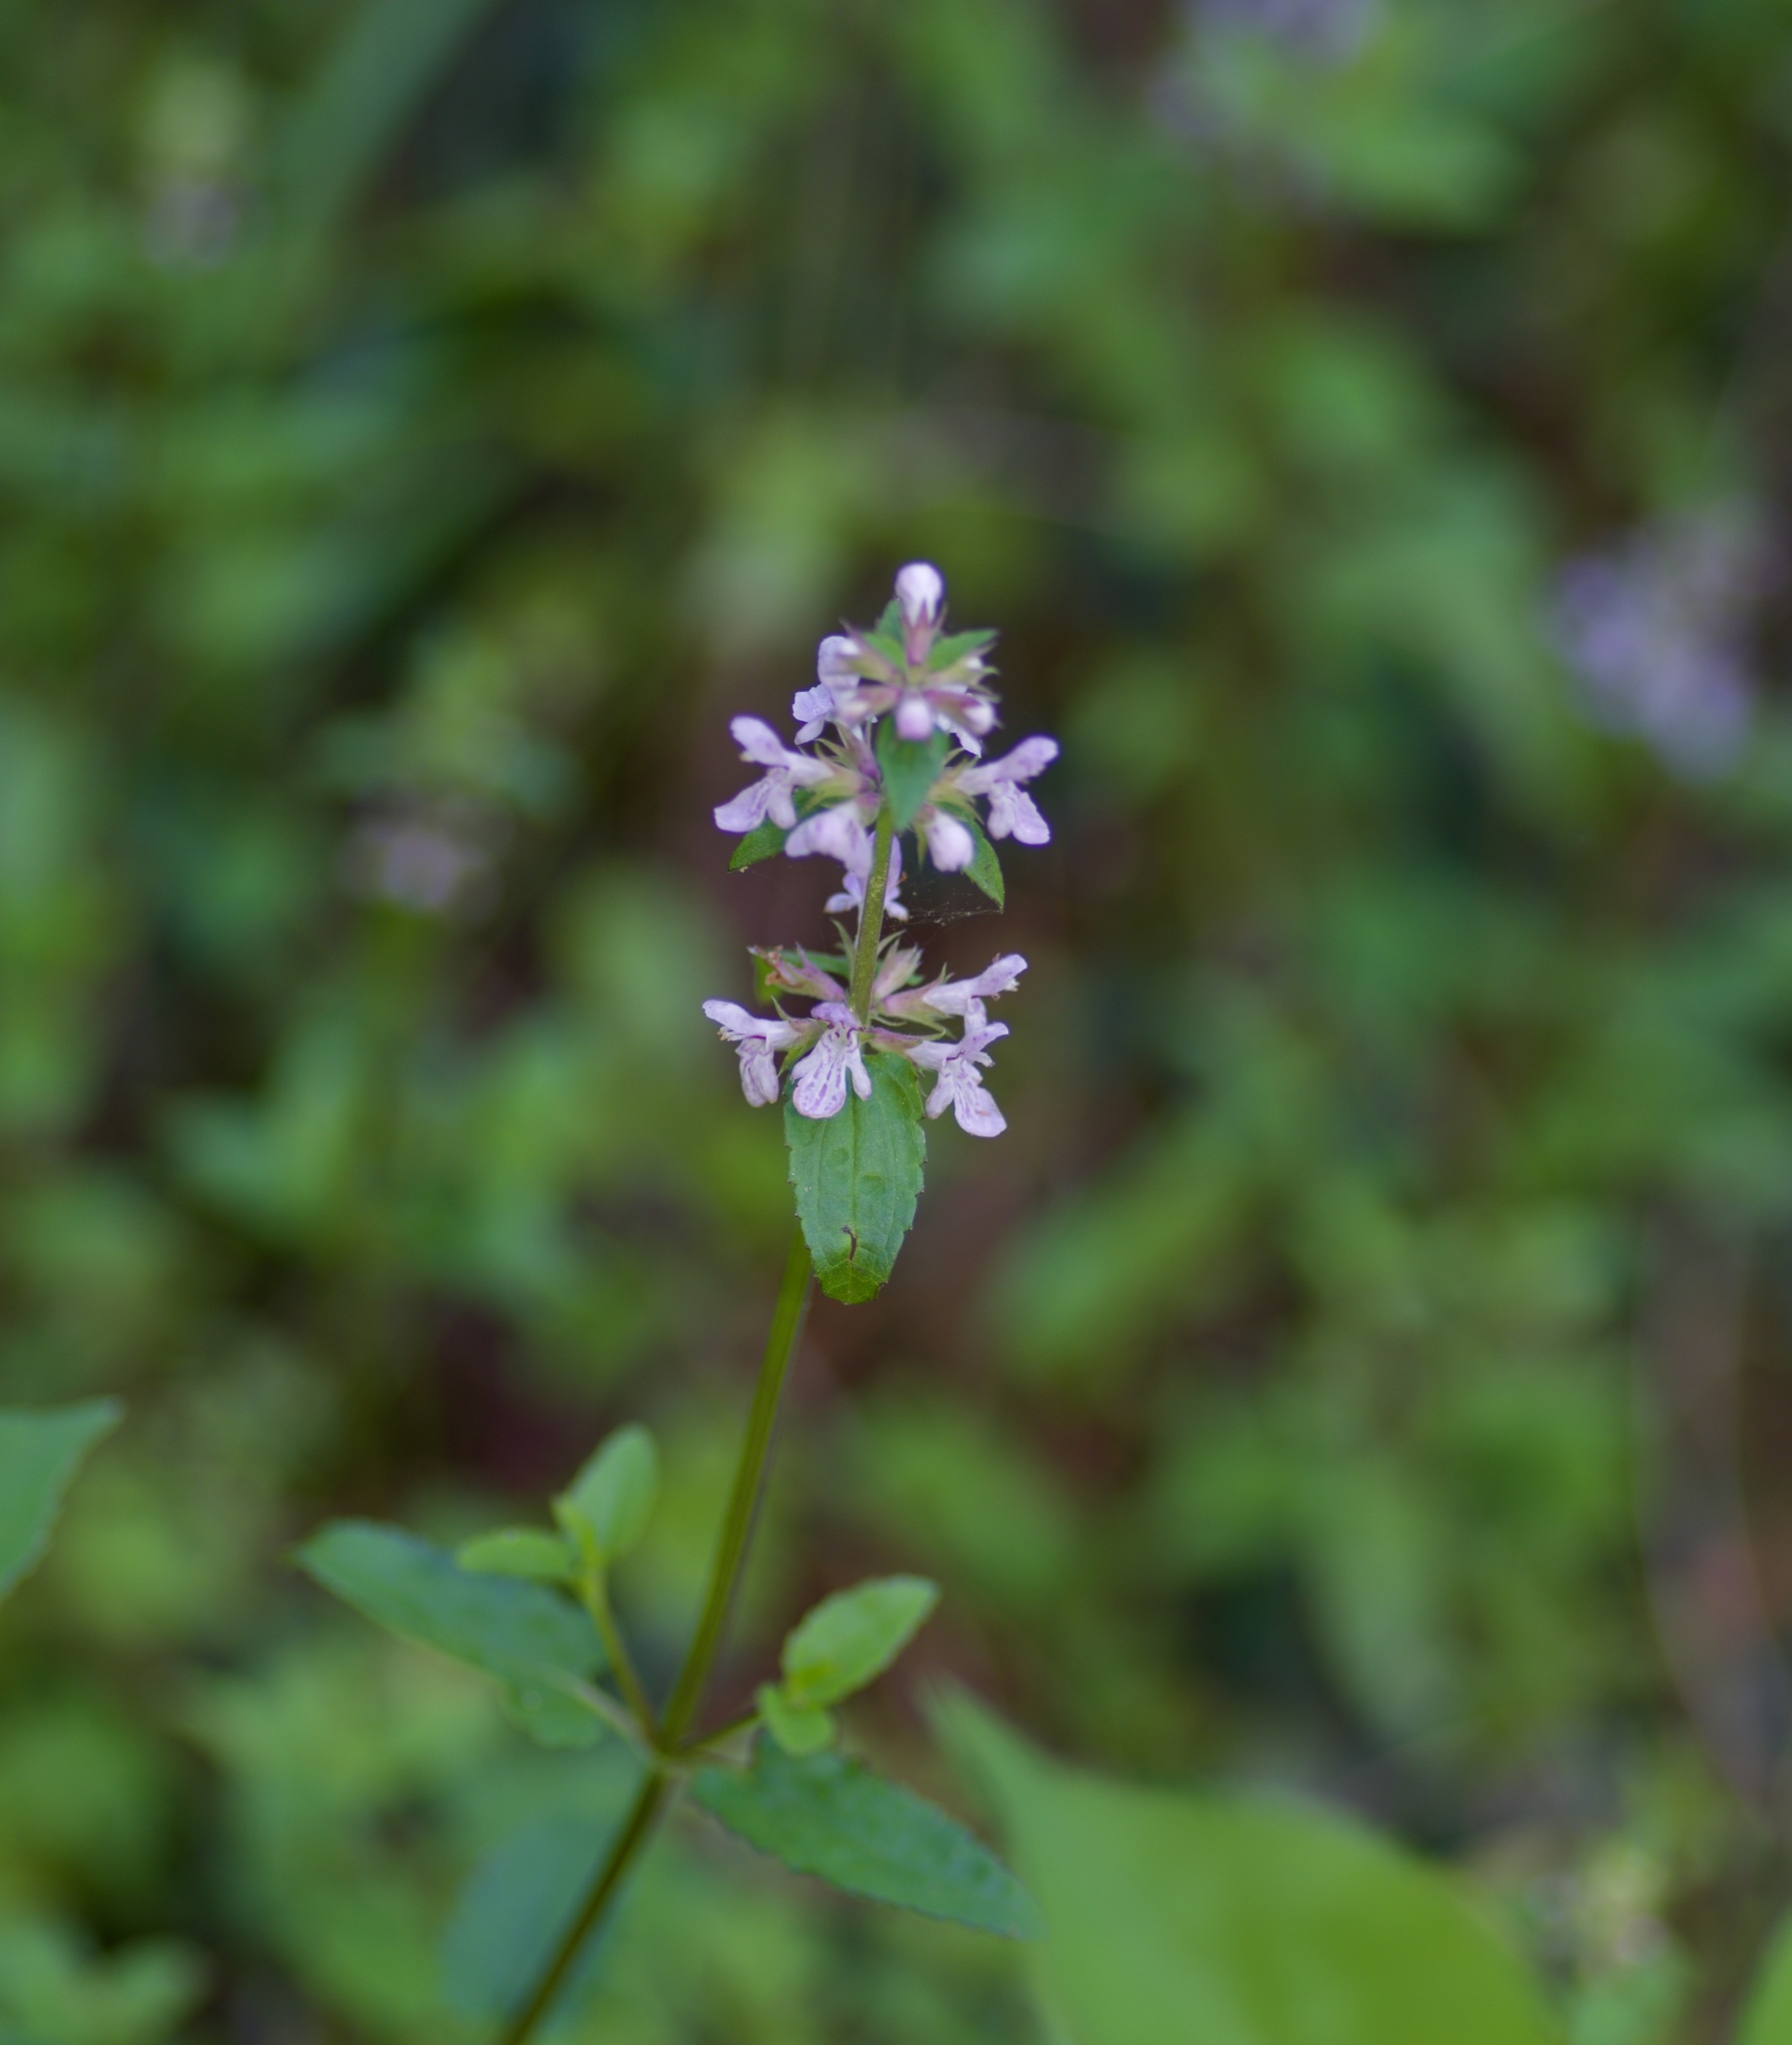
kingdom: Plantae
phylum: Tracheophyta
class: Magnoliopsida
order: Lamiales
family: Lamiaceae
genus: Stachys
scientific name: Stachys floridana
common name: Florida betony
